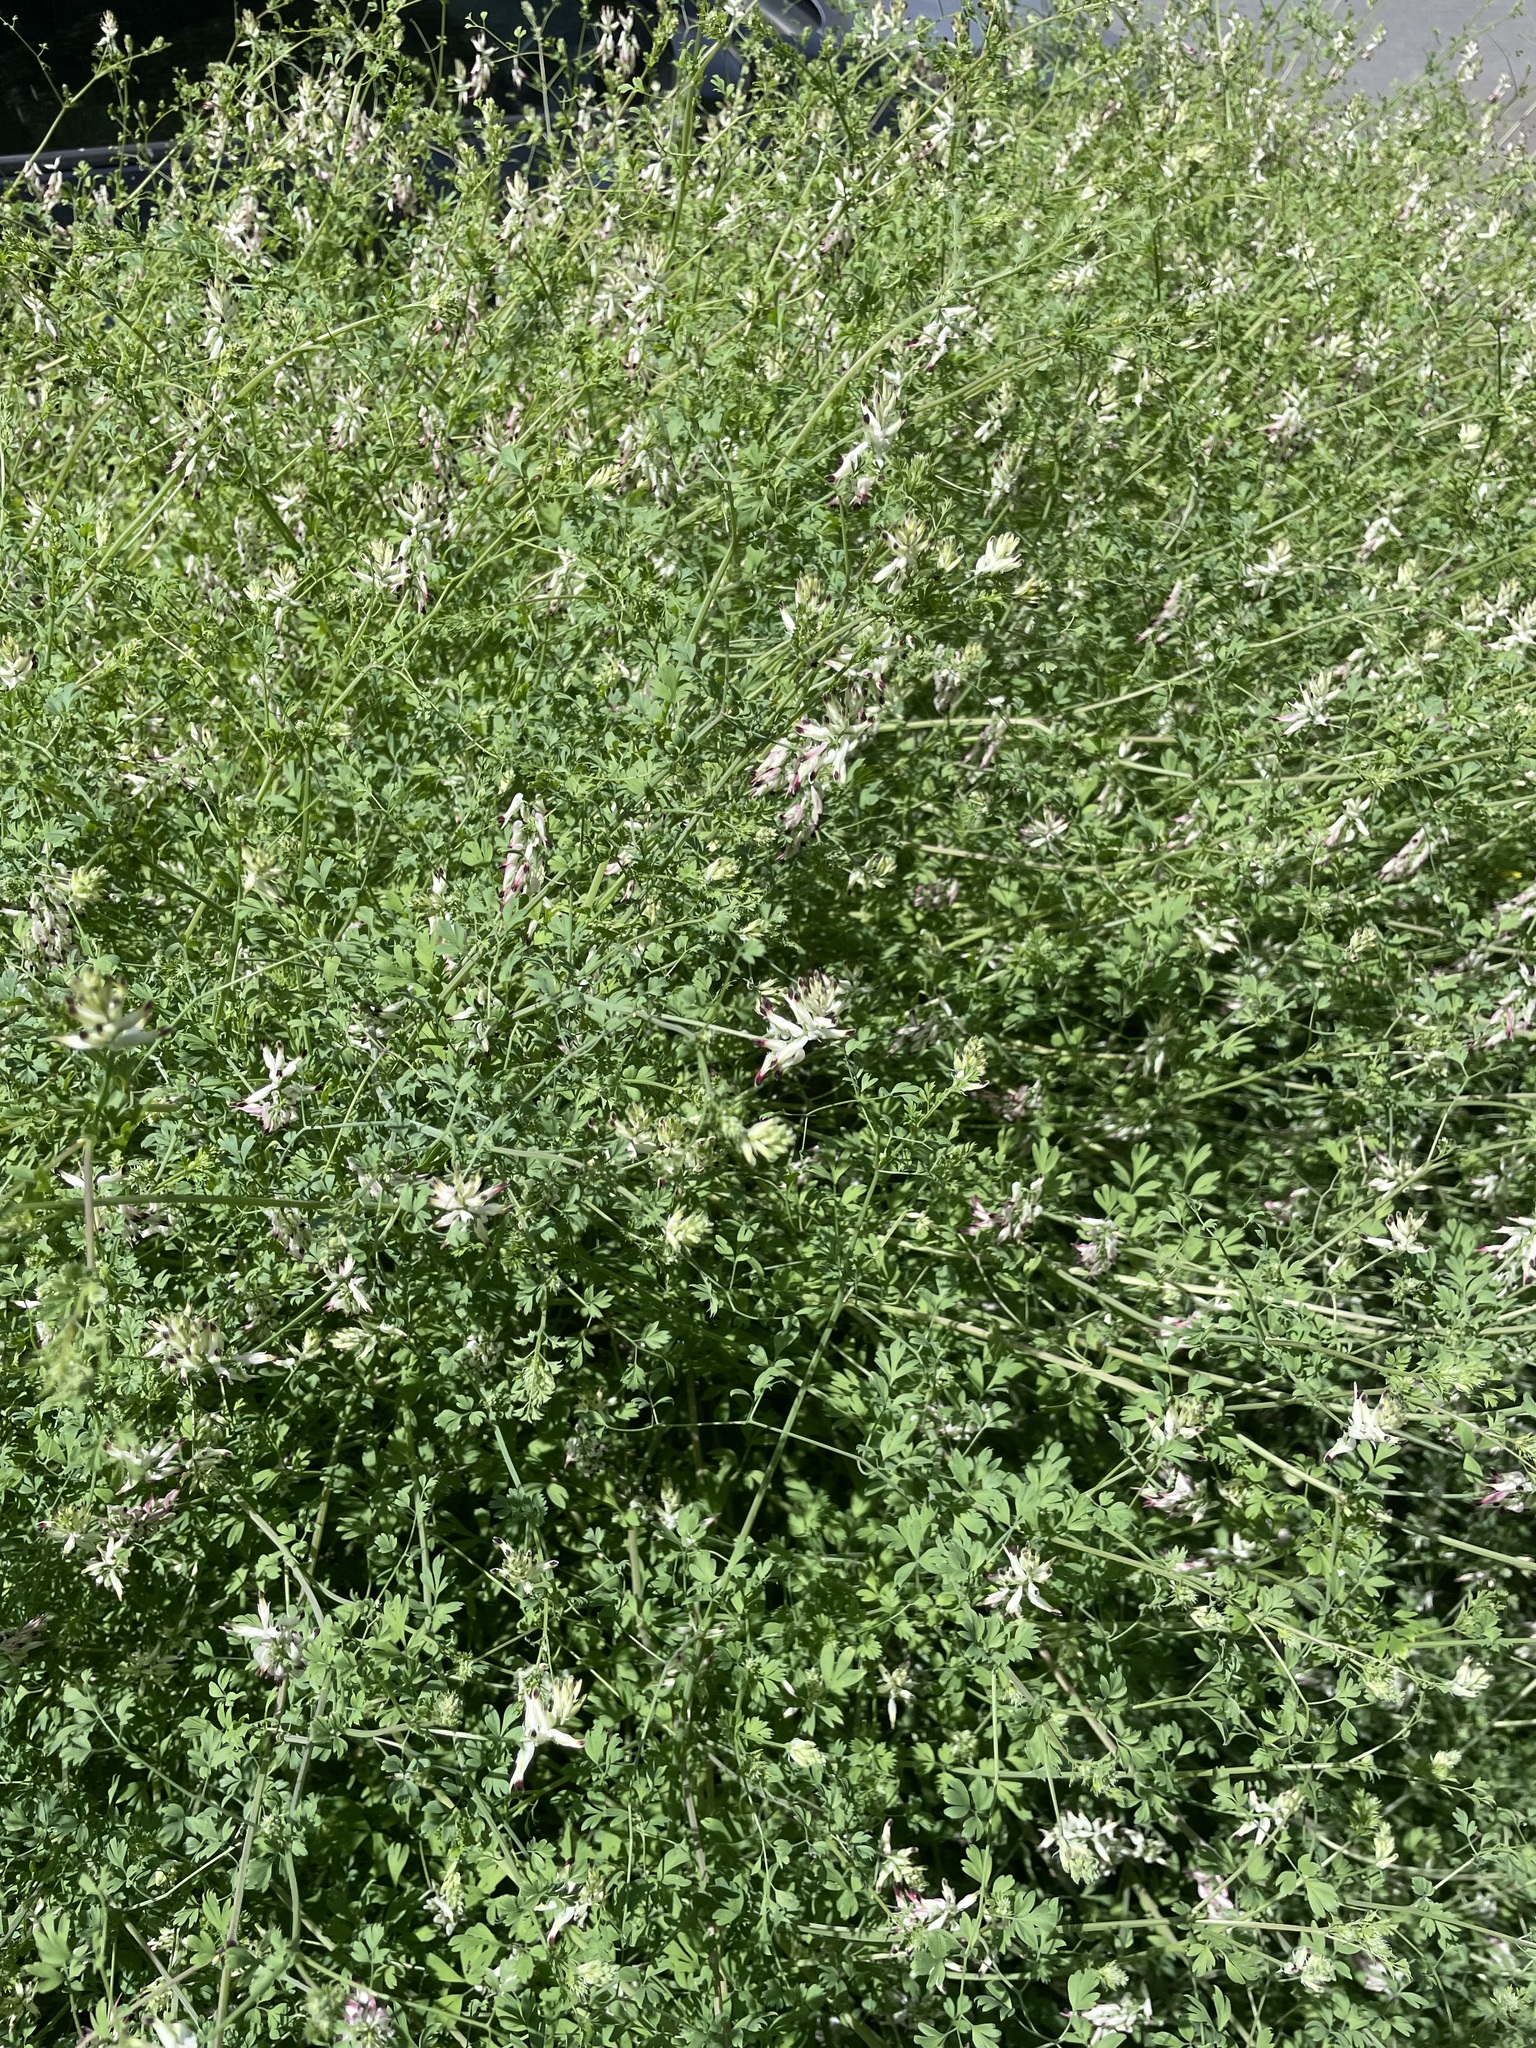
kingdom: Plantae
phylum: Tracheophyta
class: Magnoliopsida
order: Ranunculales
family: Papaveraceae
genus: Fumaria
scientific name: Fumaria capreolata
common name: White ramping-fumitory
